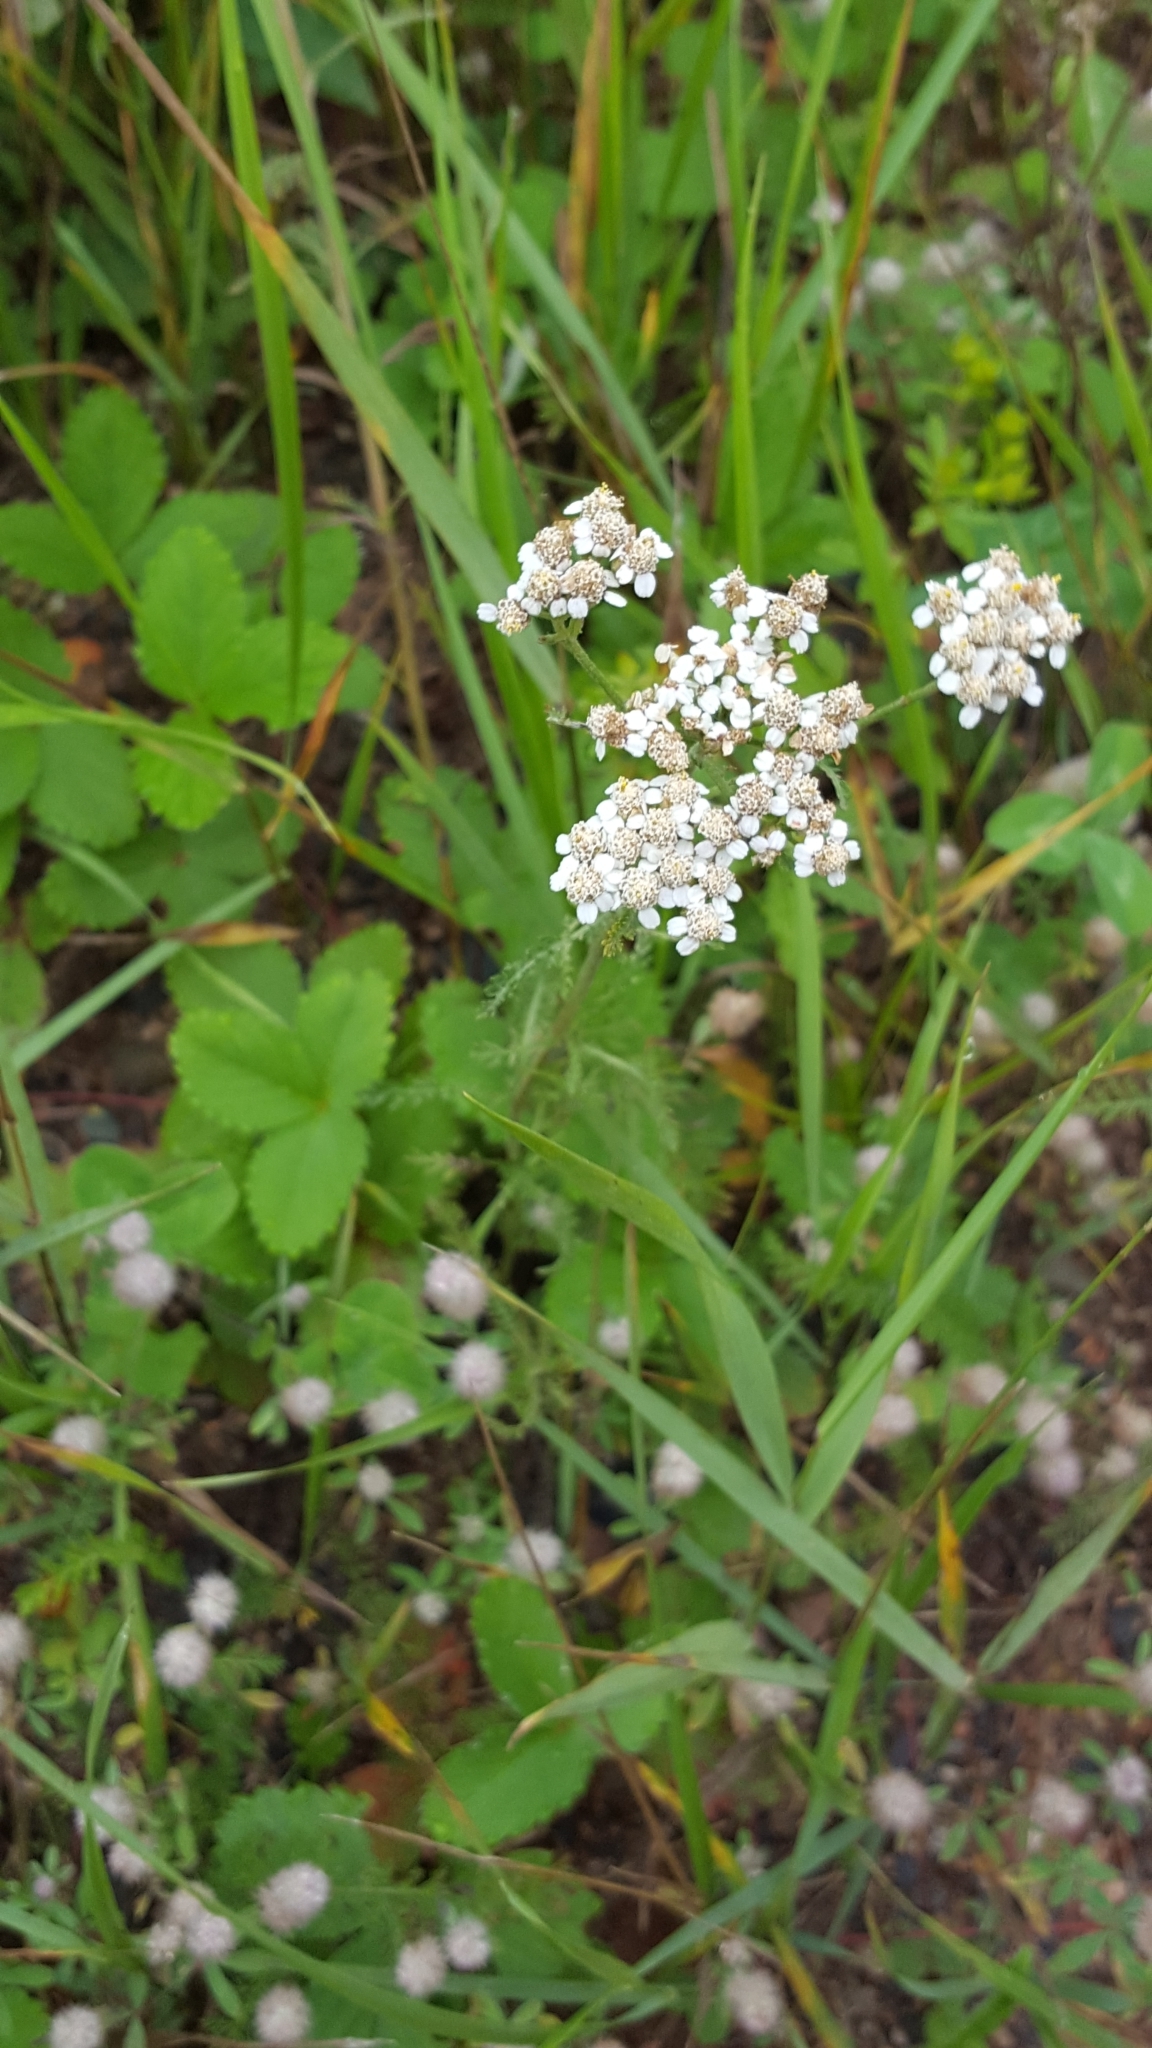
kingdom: Plantae
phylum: Tracheophyta
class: Magnoliopsida
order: Asterales
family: Asteraceae
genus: Achillea
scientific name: Achillea millefolium
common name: Yarrow
